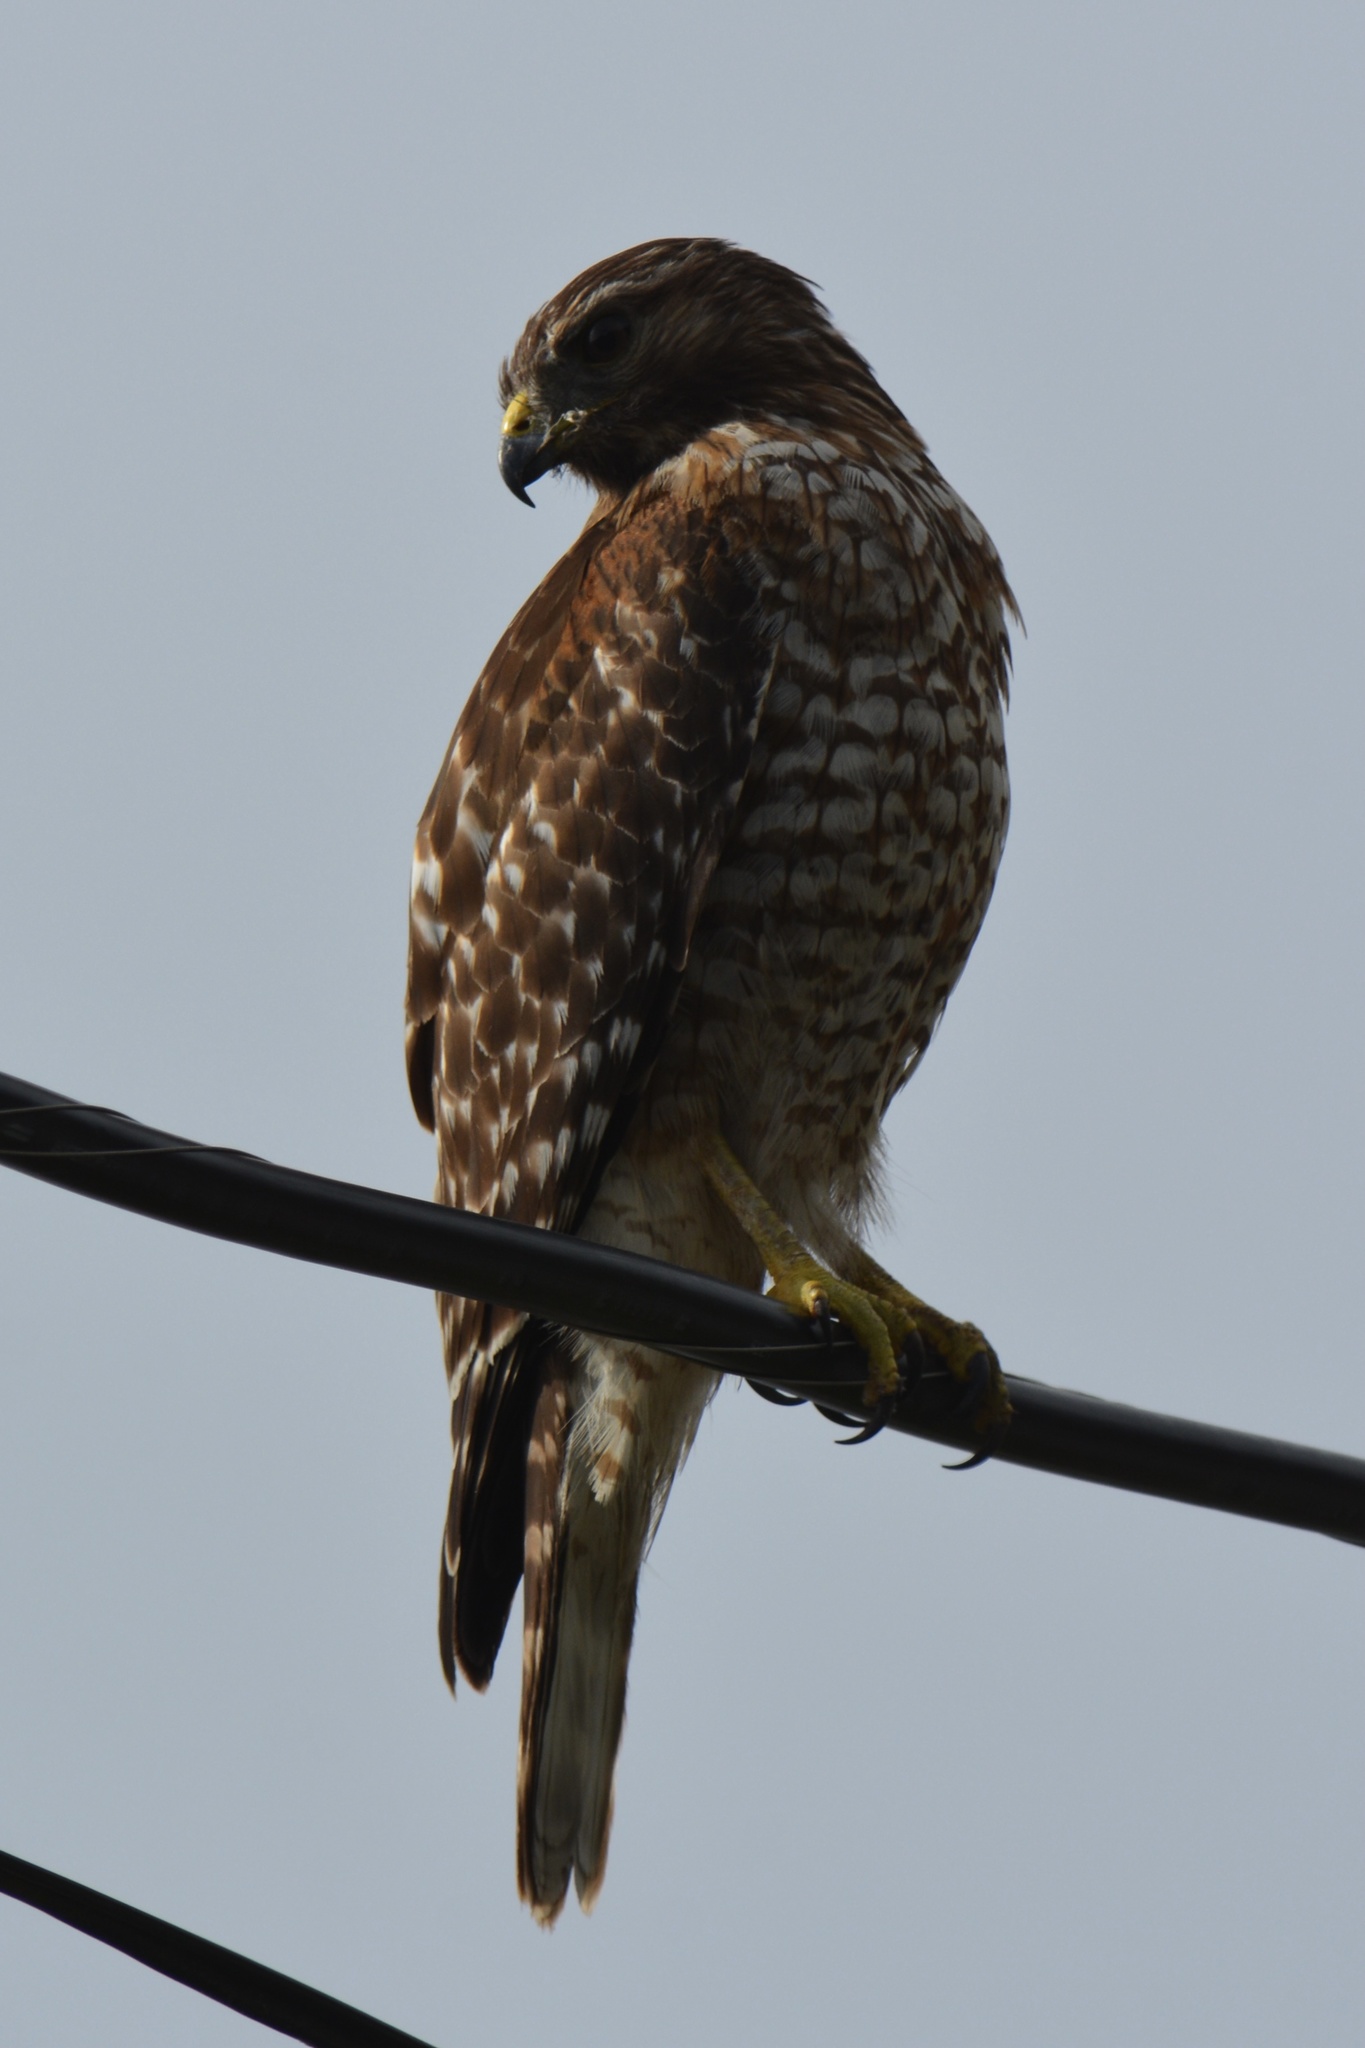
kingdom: Animalia
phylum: Chordata
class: Aves
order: Accipitriformes
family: Accipitridae
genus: Buteo
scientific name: Buteo lineatus
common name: Red-shouldered hawk
